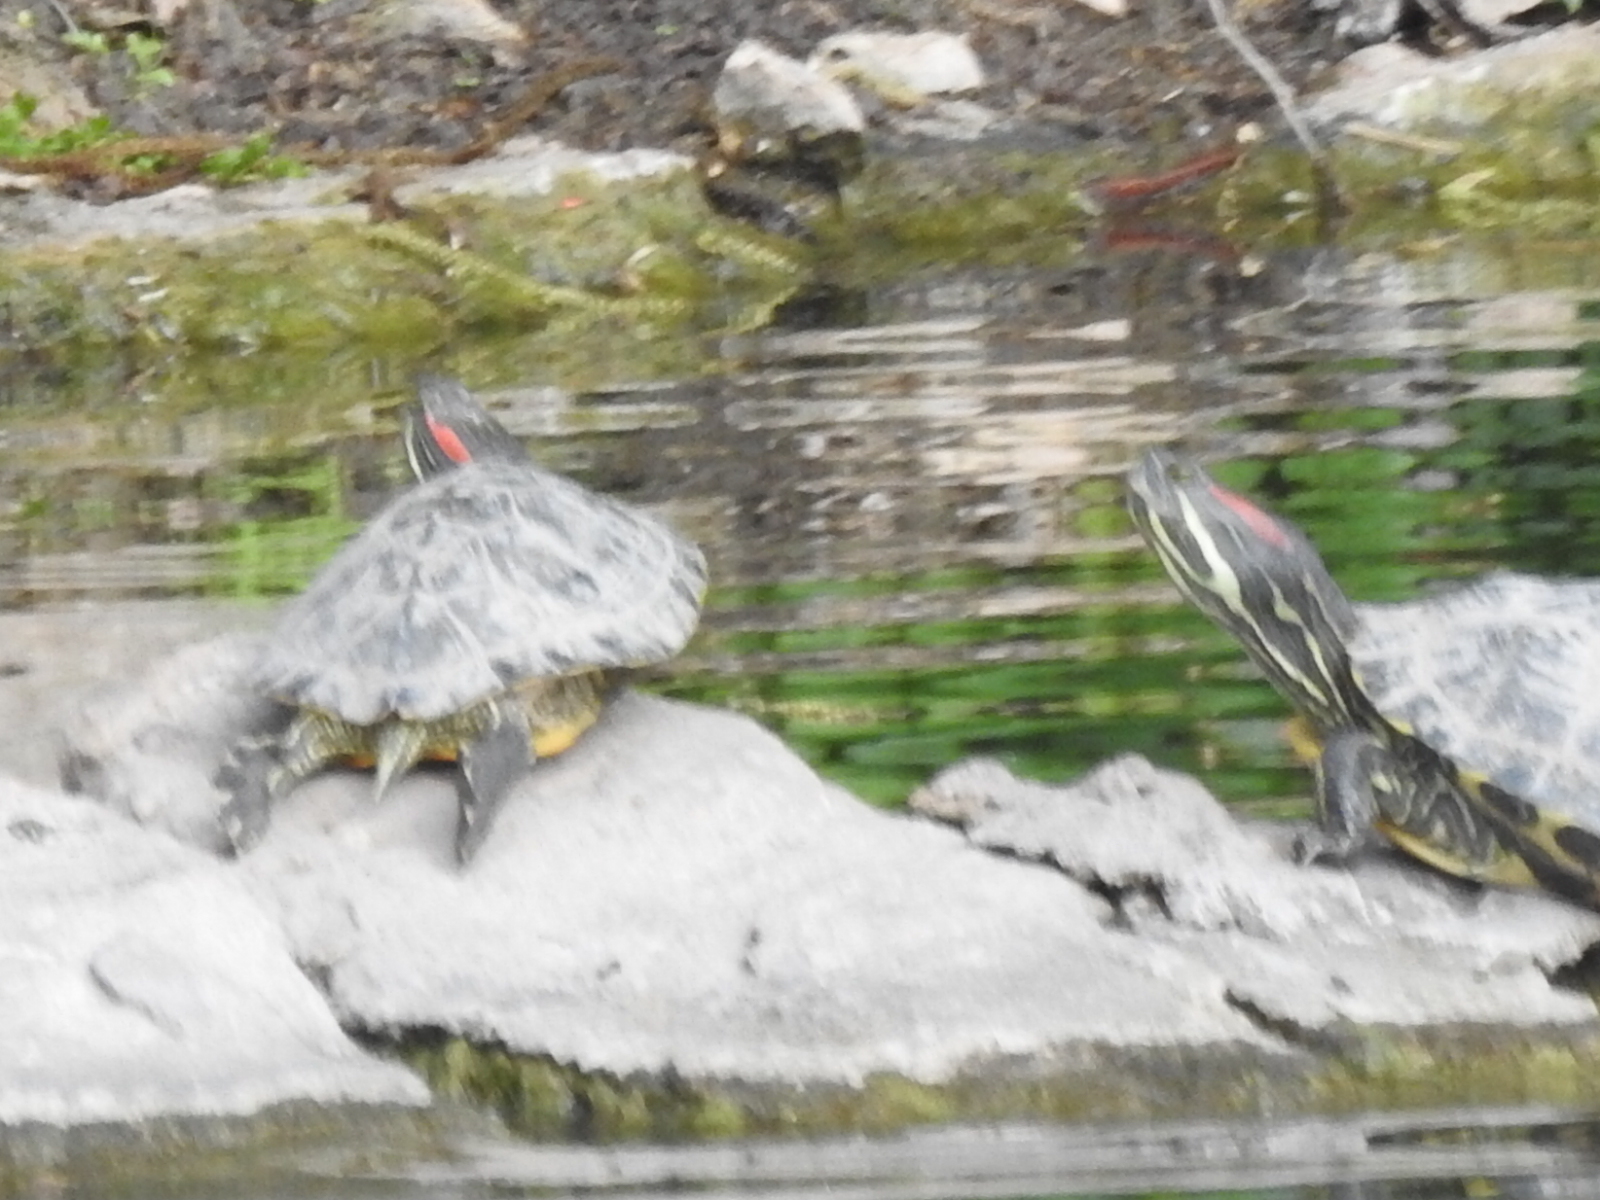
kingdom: Animalia
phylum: Chordata
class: Testudines
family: Emydidae
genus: Trachemys
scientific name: Trachemys scripta
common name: Slider
